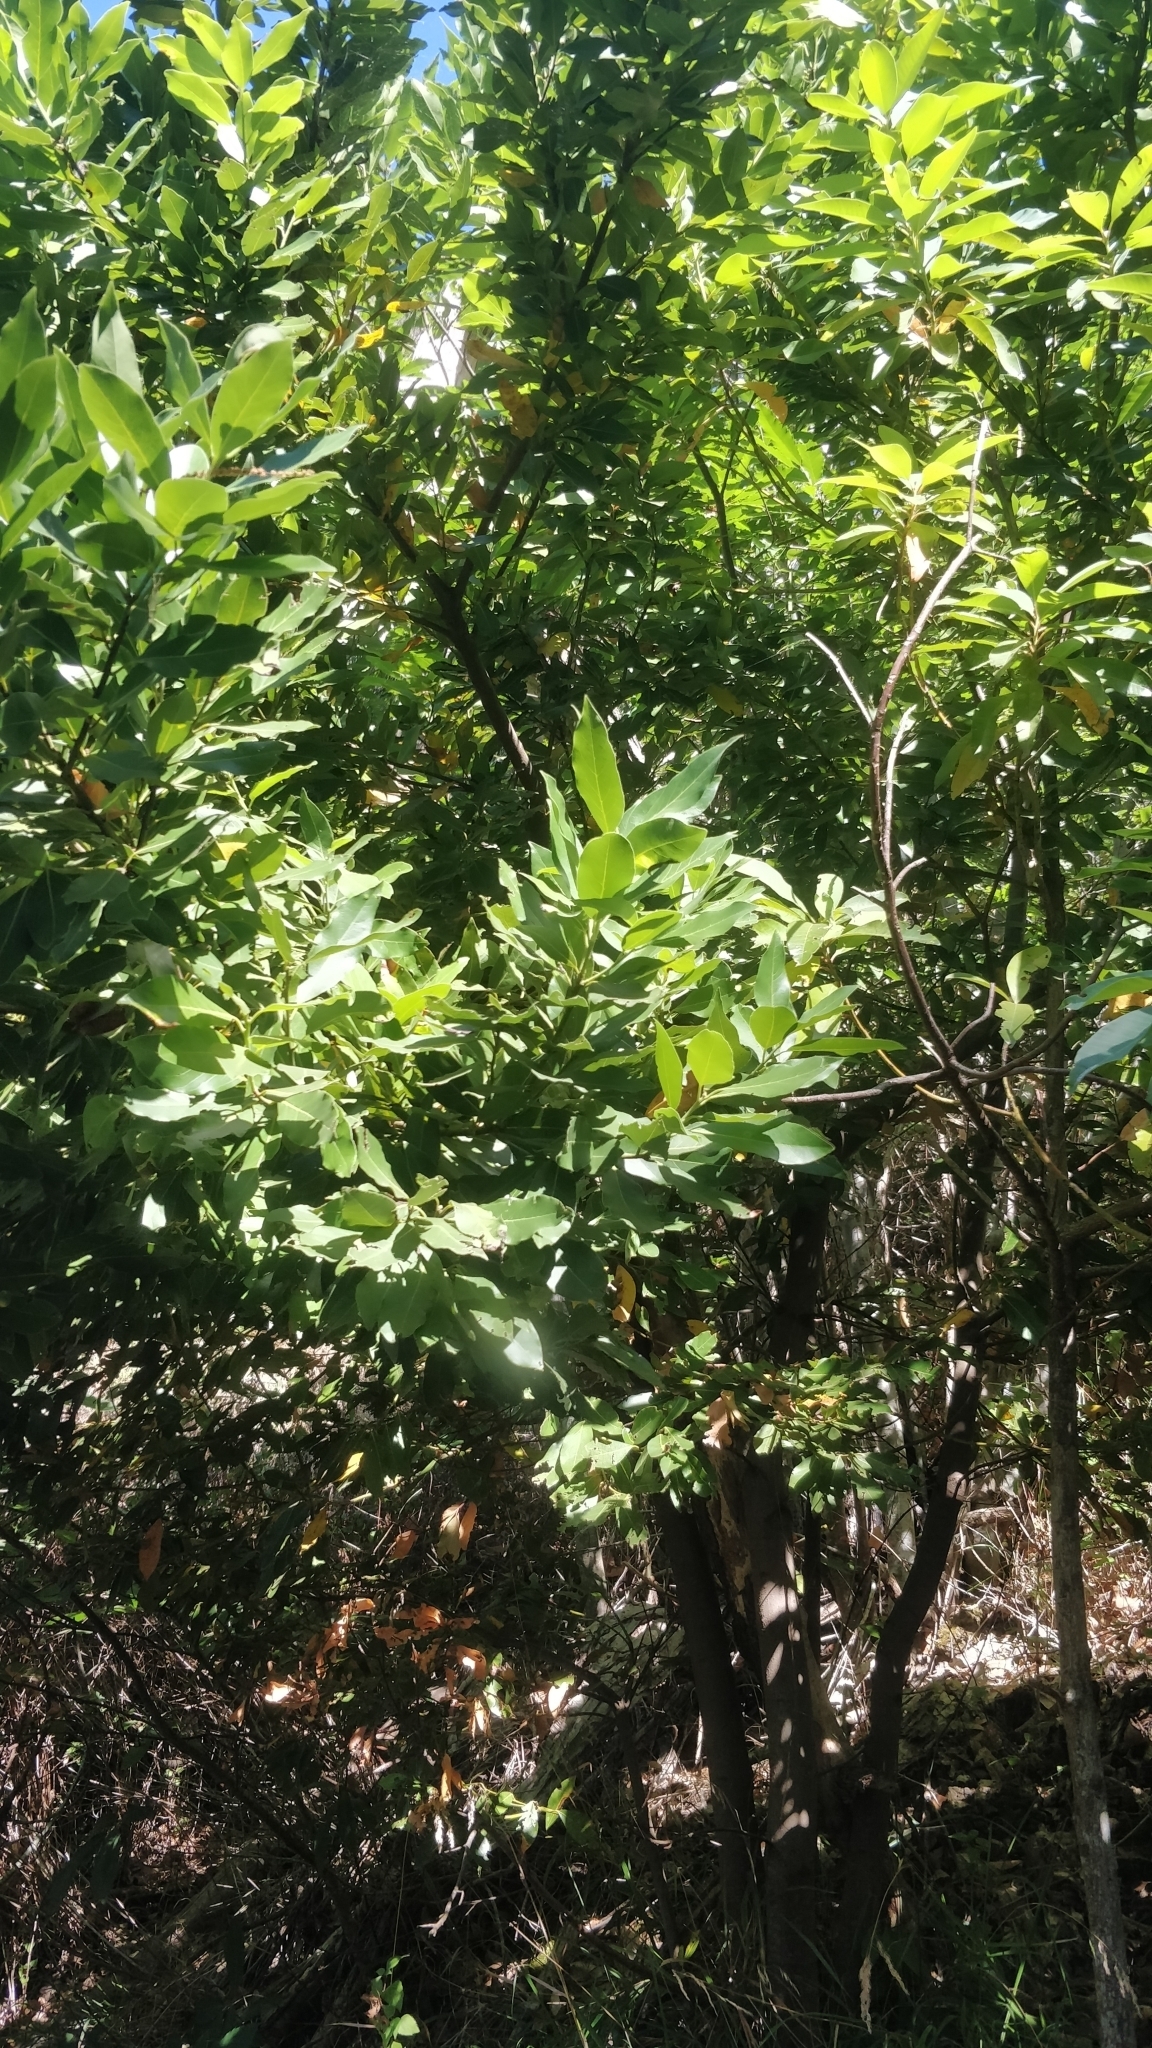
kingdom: Plantae
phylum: Tracheophyta
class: Magnoliopsida
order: Laurales
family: Lauraceae
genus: Laurus
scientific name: Laurus novocanariensis
